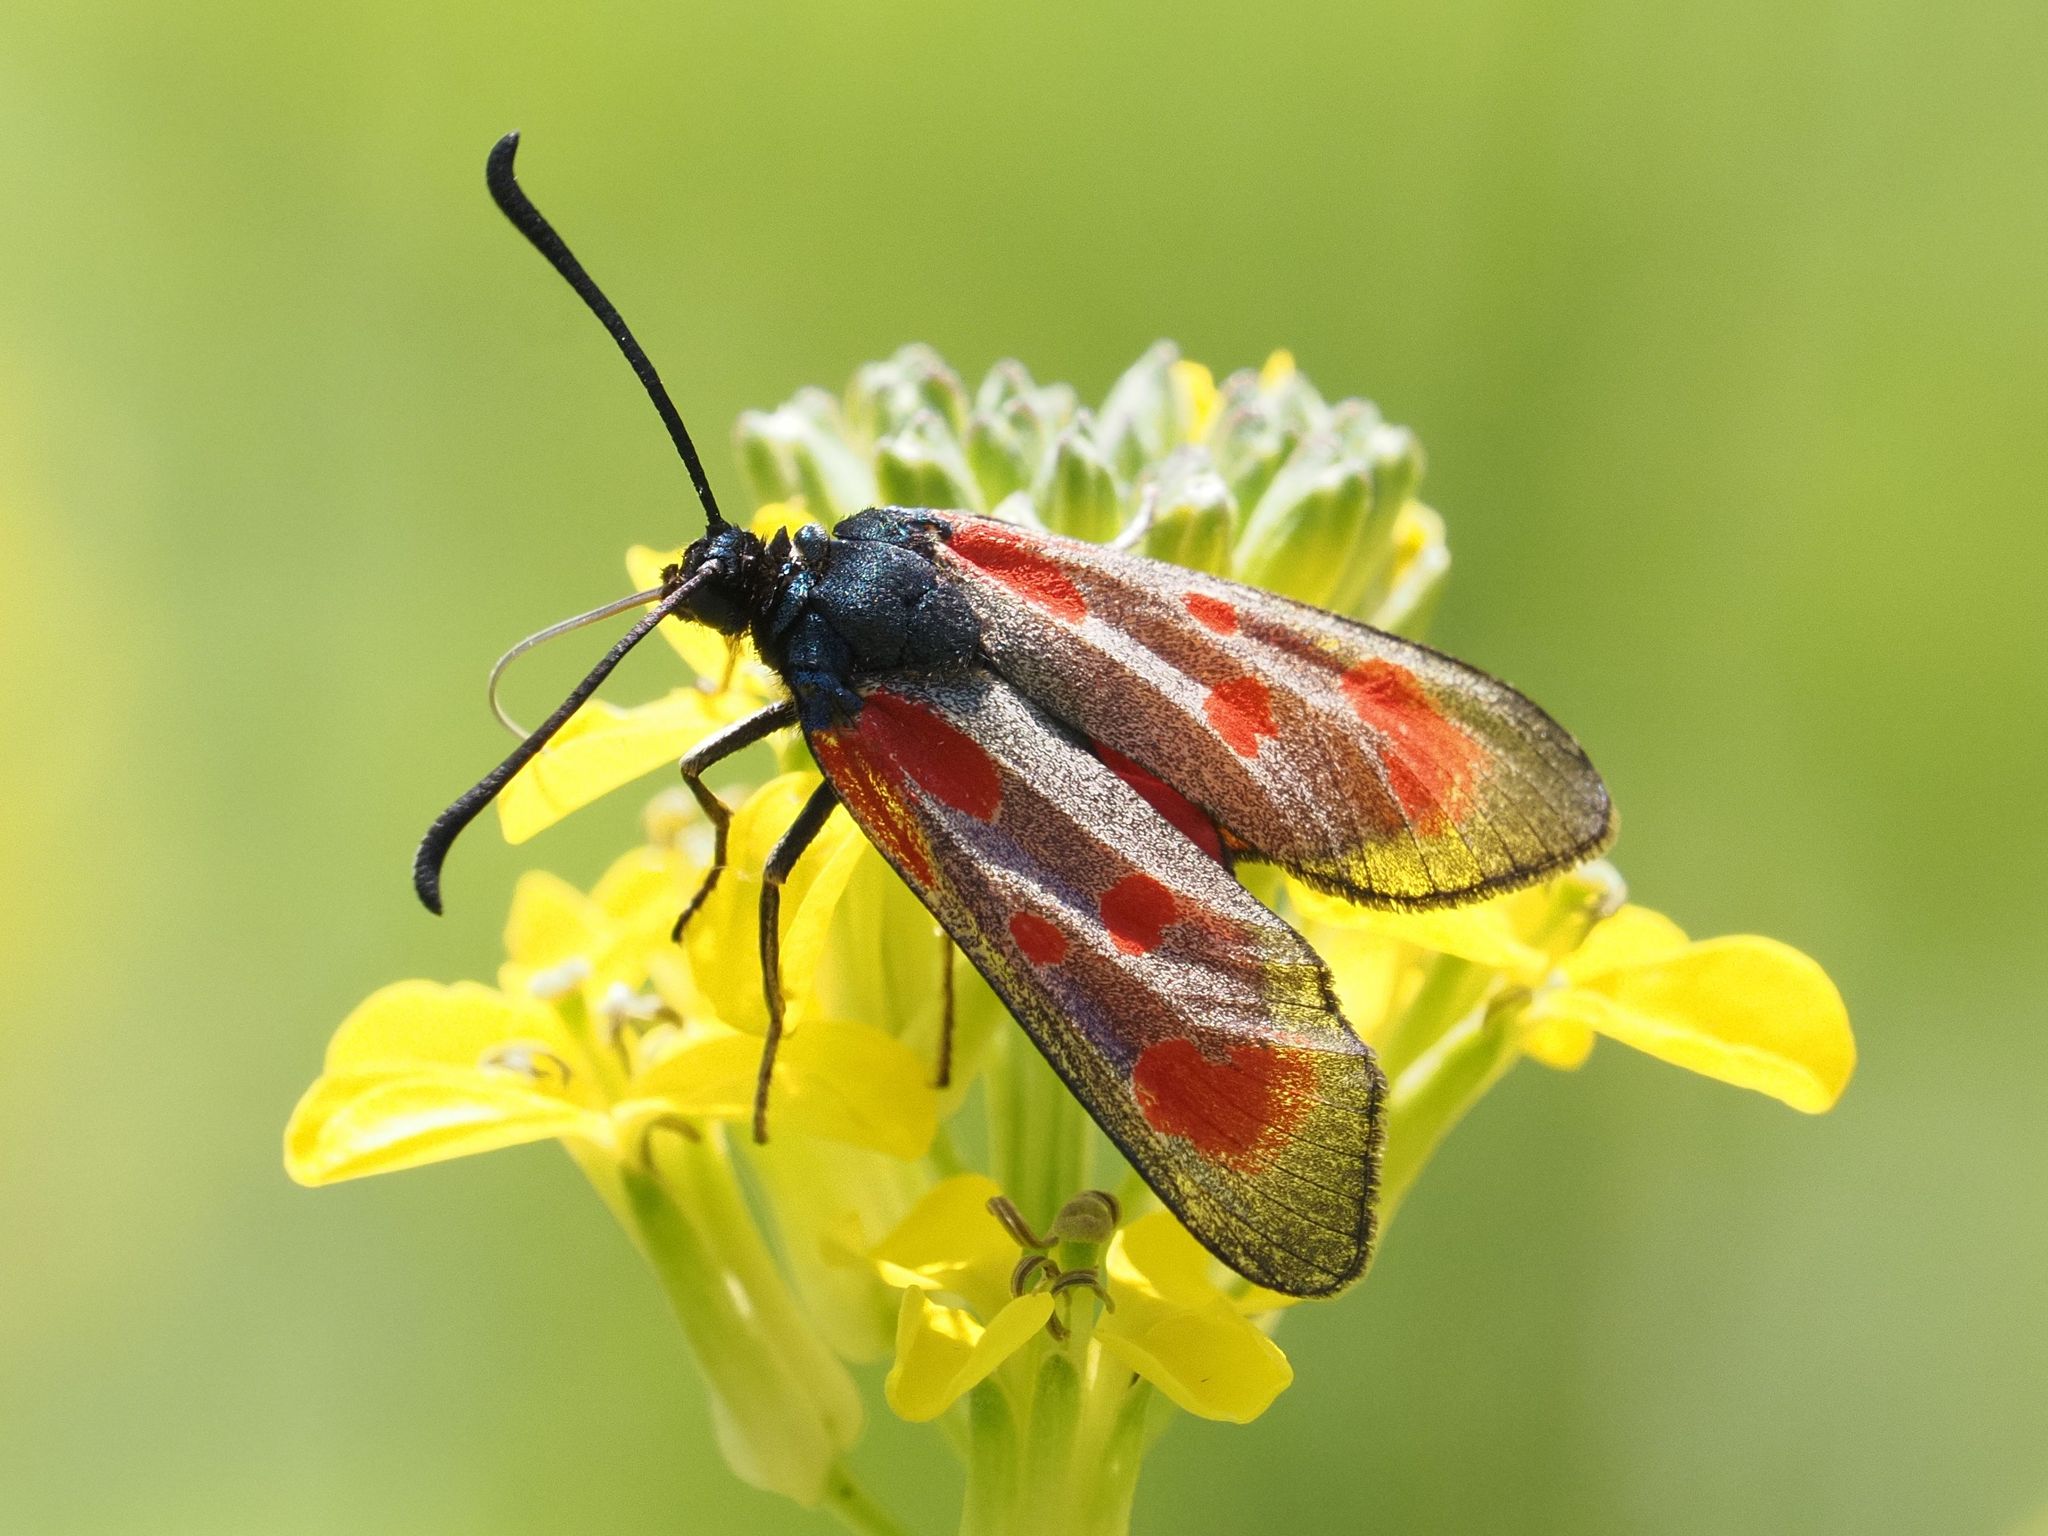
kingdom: Animalia
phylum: Arthropoda
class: Insecta
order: Lepidoptera
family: Zygaenidae
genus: Zygaena
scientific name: Zygaena loti
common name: Slender scotch burnet
